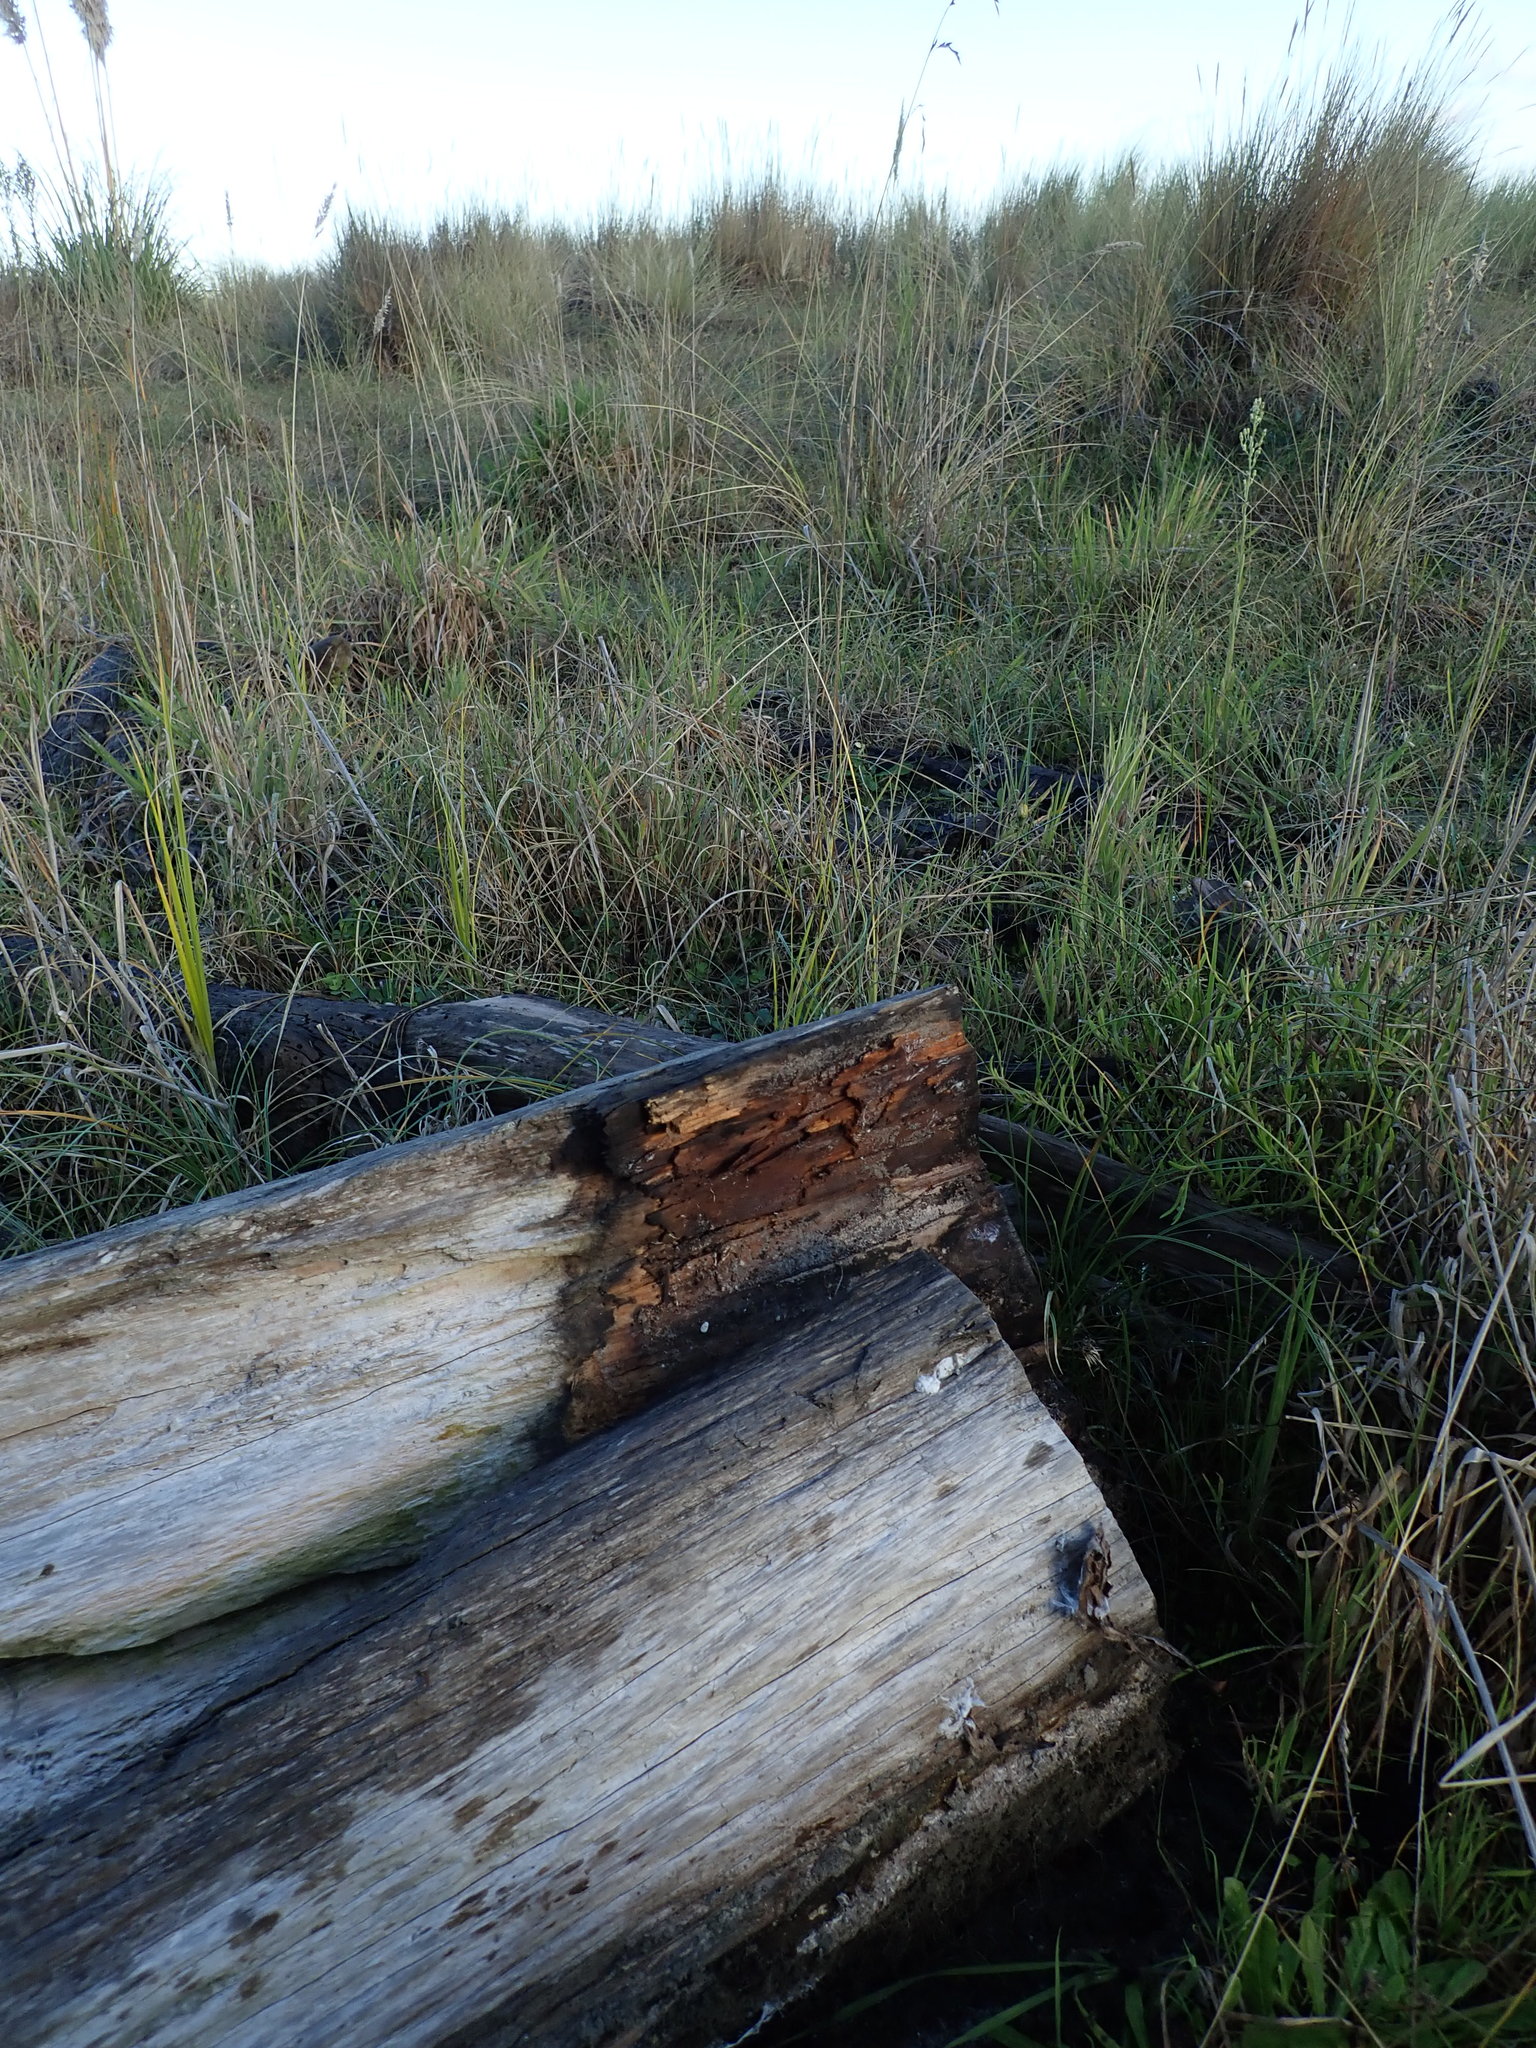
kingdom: Animalia
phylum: Chordata
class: Squamata
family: Scincidae
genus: Oligosoma
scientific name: Oligosoma polychroma
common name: Common new zealand skink
